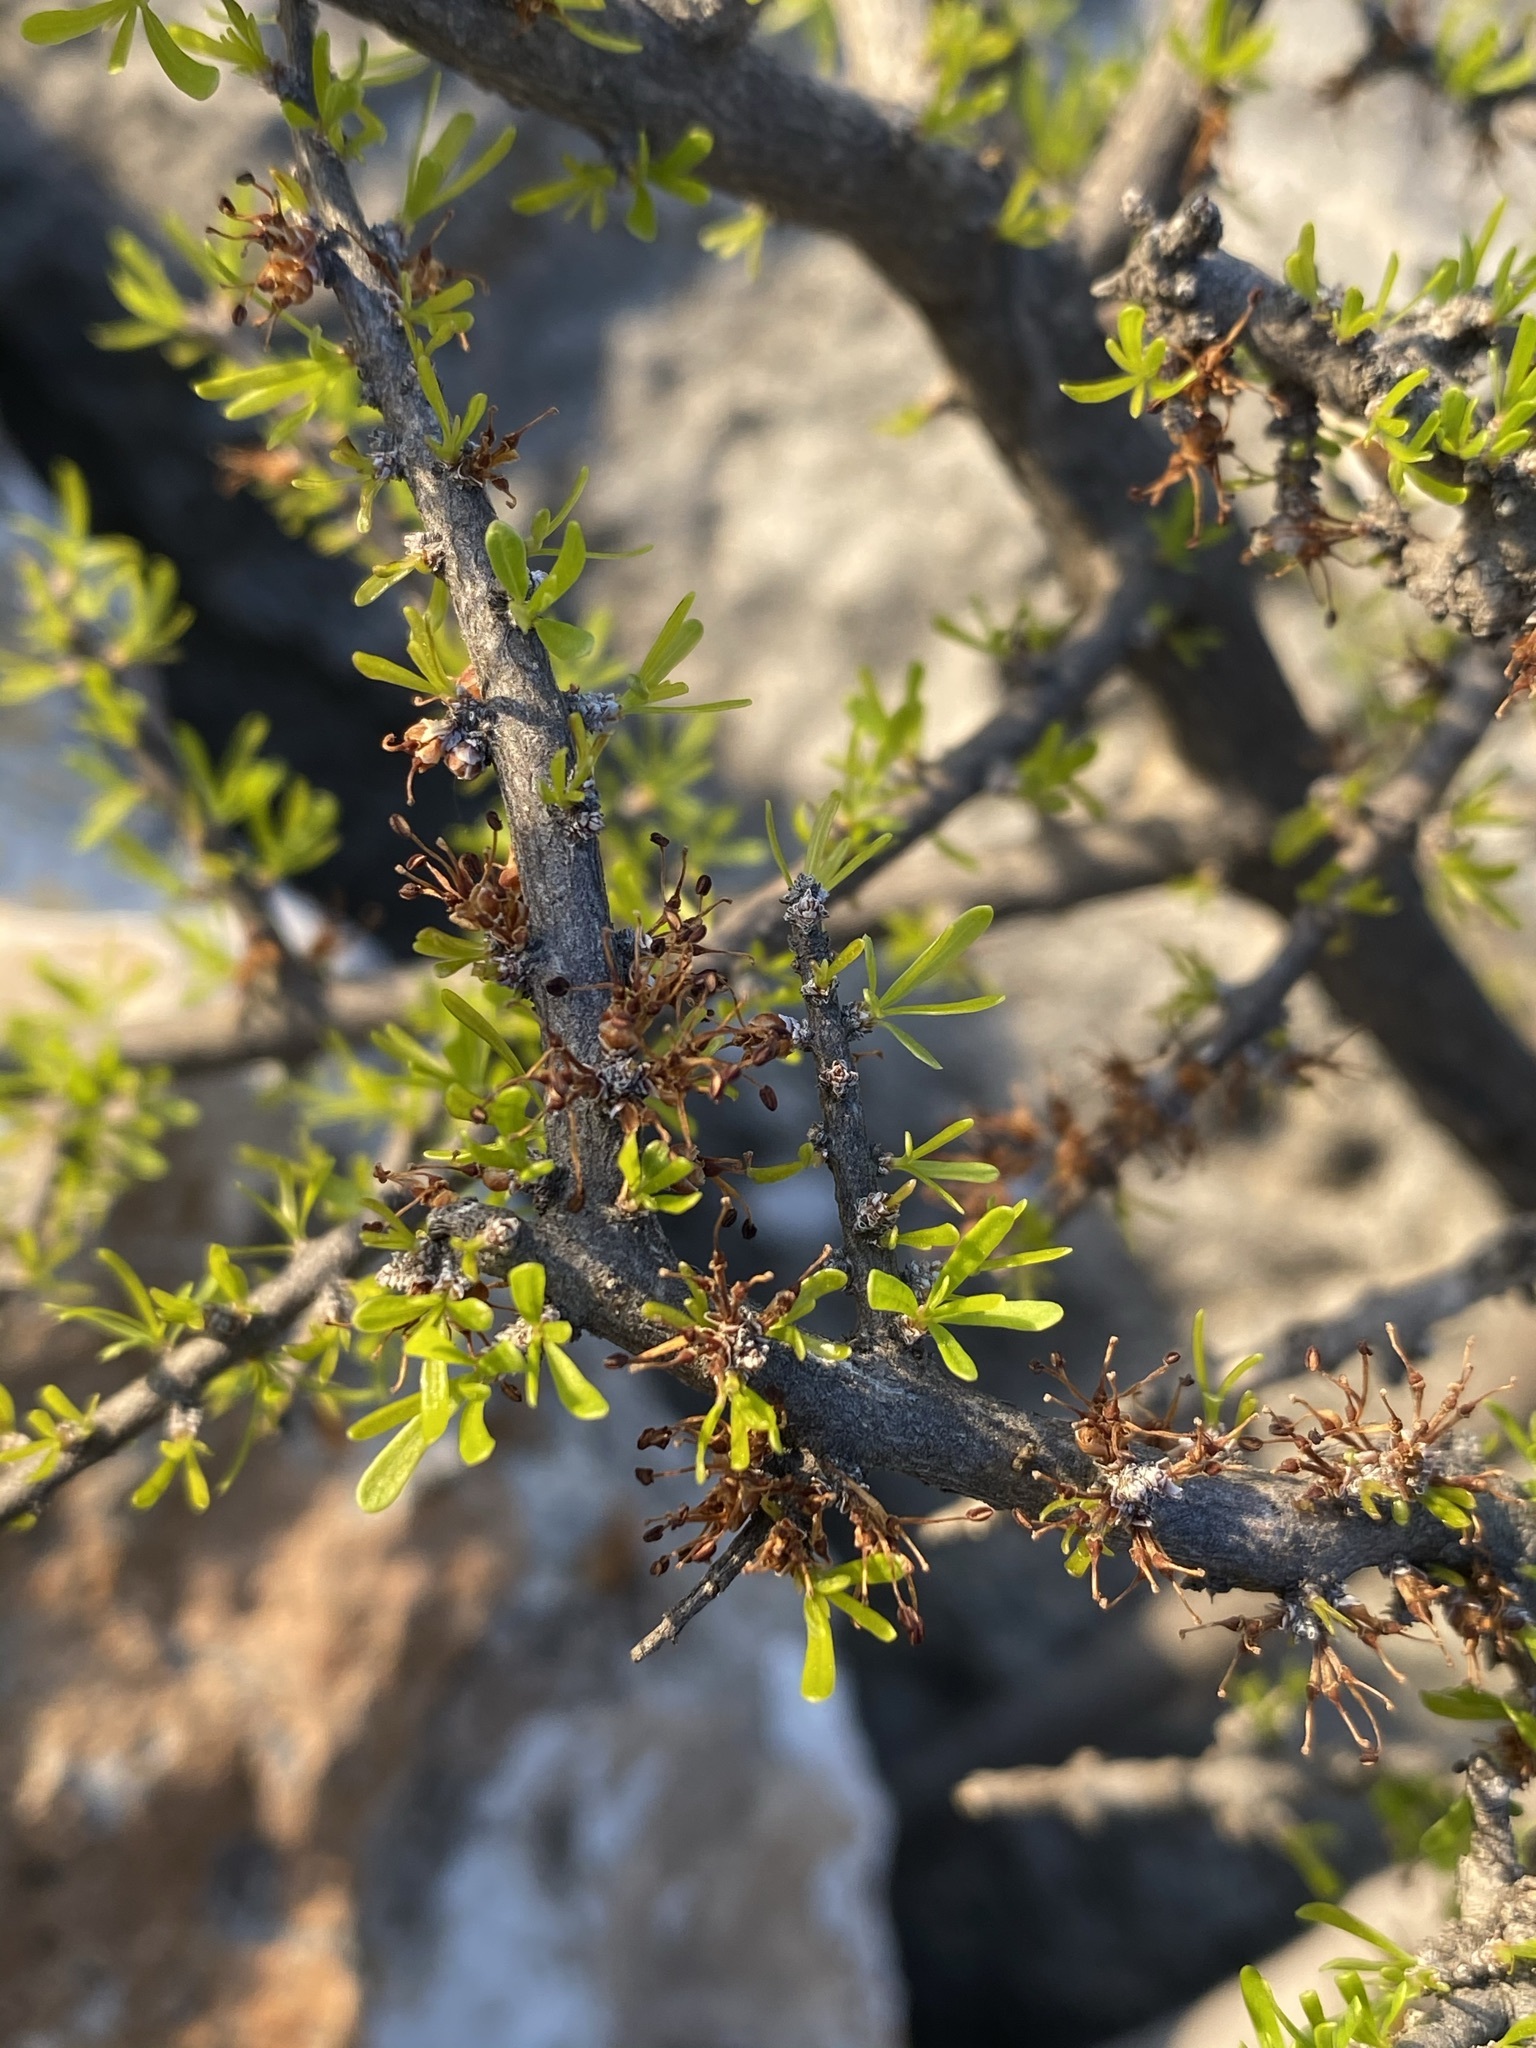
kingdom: Plantae
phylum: Tracheophyta
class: Magnoliopsida
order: Lamiales
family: Oleaceae
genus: Forestiera
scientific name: Forestiera angustifolia
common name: Elbowbush
